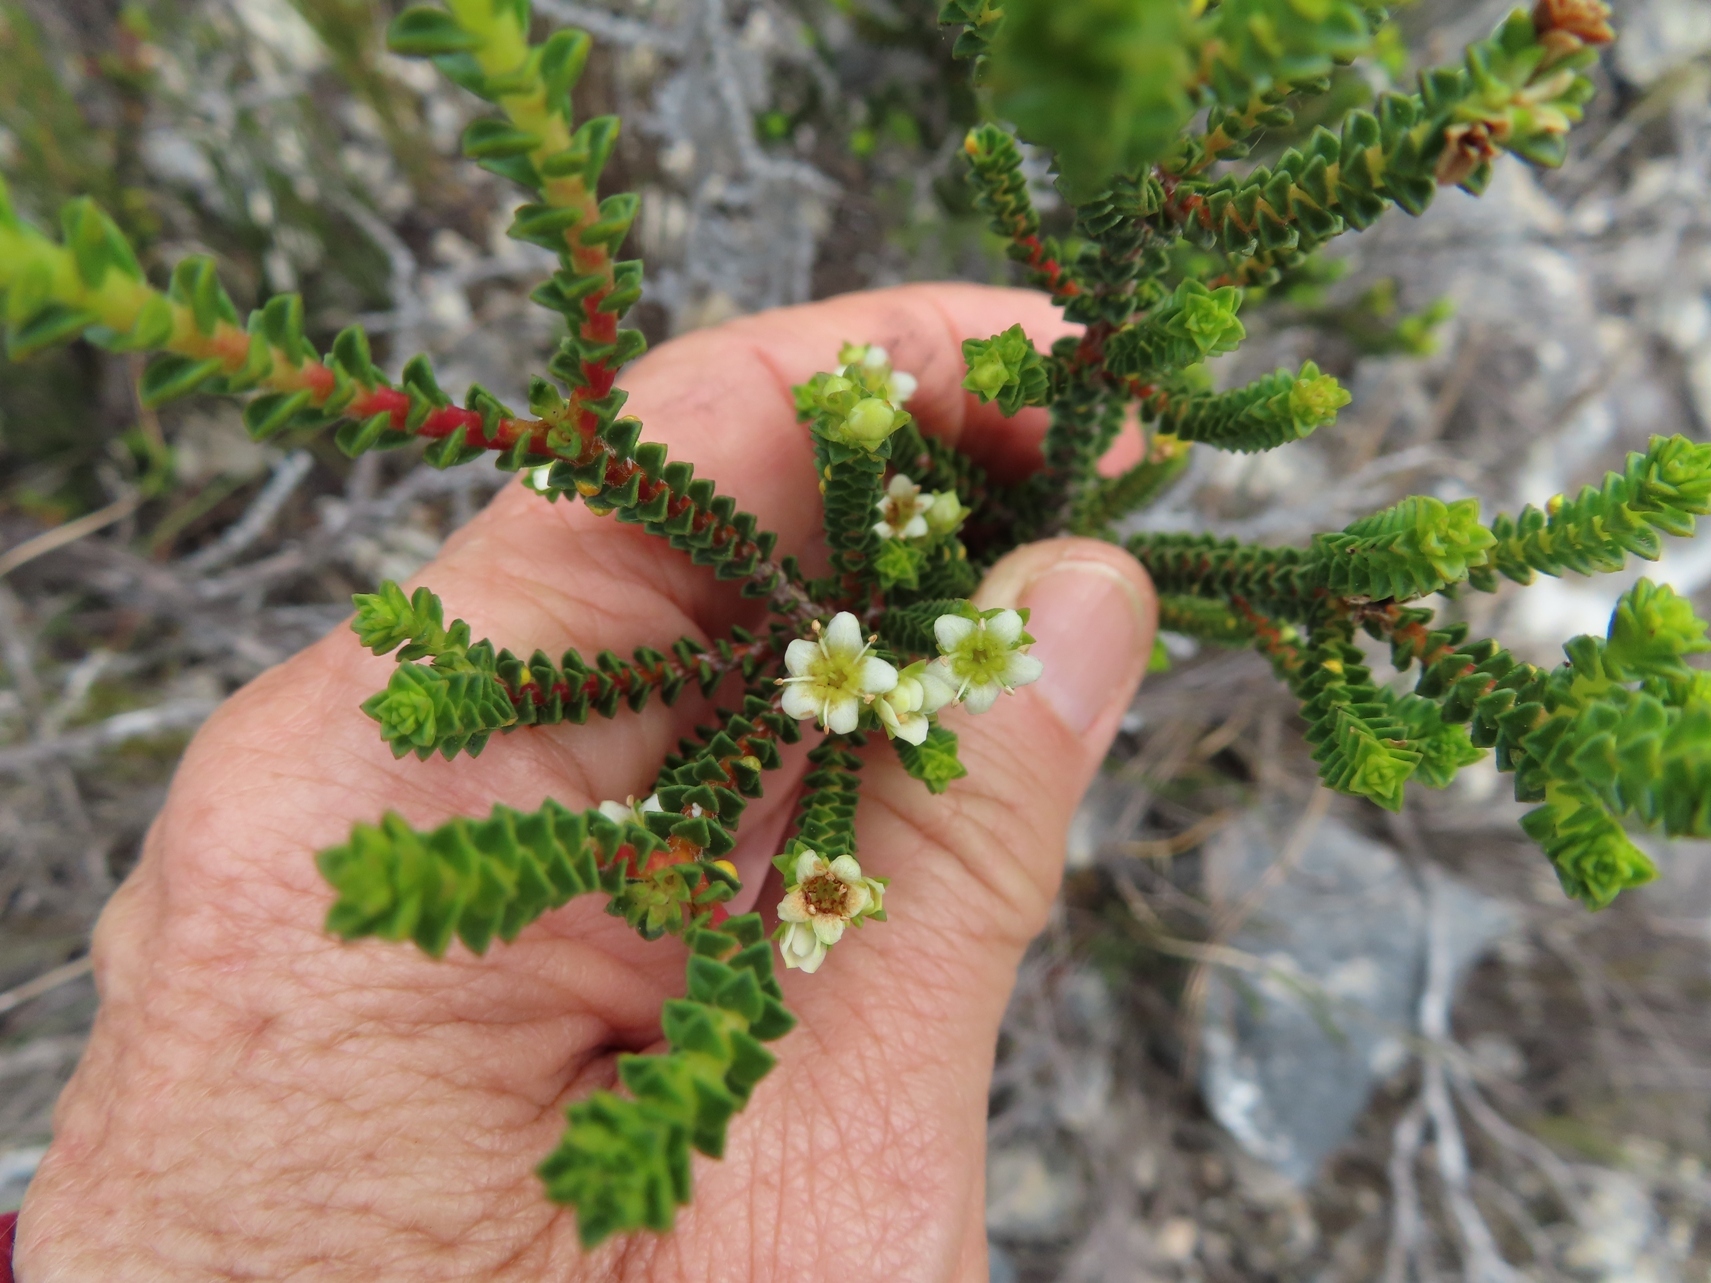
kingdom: Plantae
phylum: Tracheophyta
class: Magnoliopsida
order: Sapindales
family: Rutaceae
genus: Diosma
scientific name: Diosma guthriei
